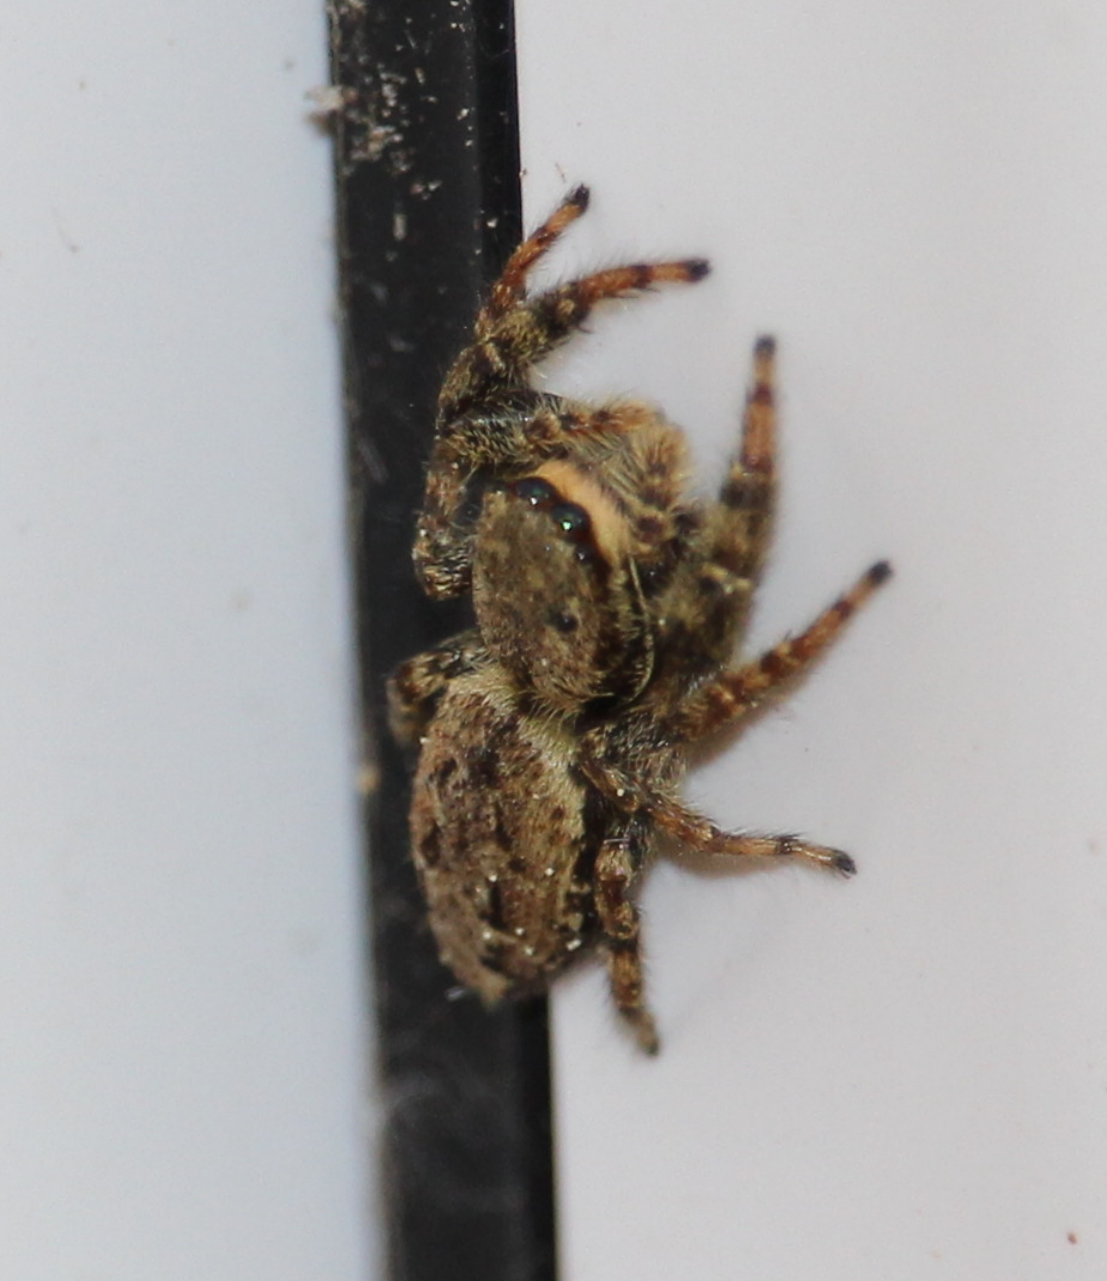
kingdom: Animalia
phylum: Arthropoda
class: Arachnida
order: Araneae
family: Salticidae
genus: Marpissa
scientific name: Marpissa muscosa
